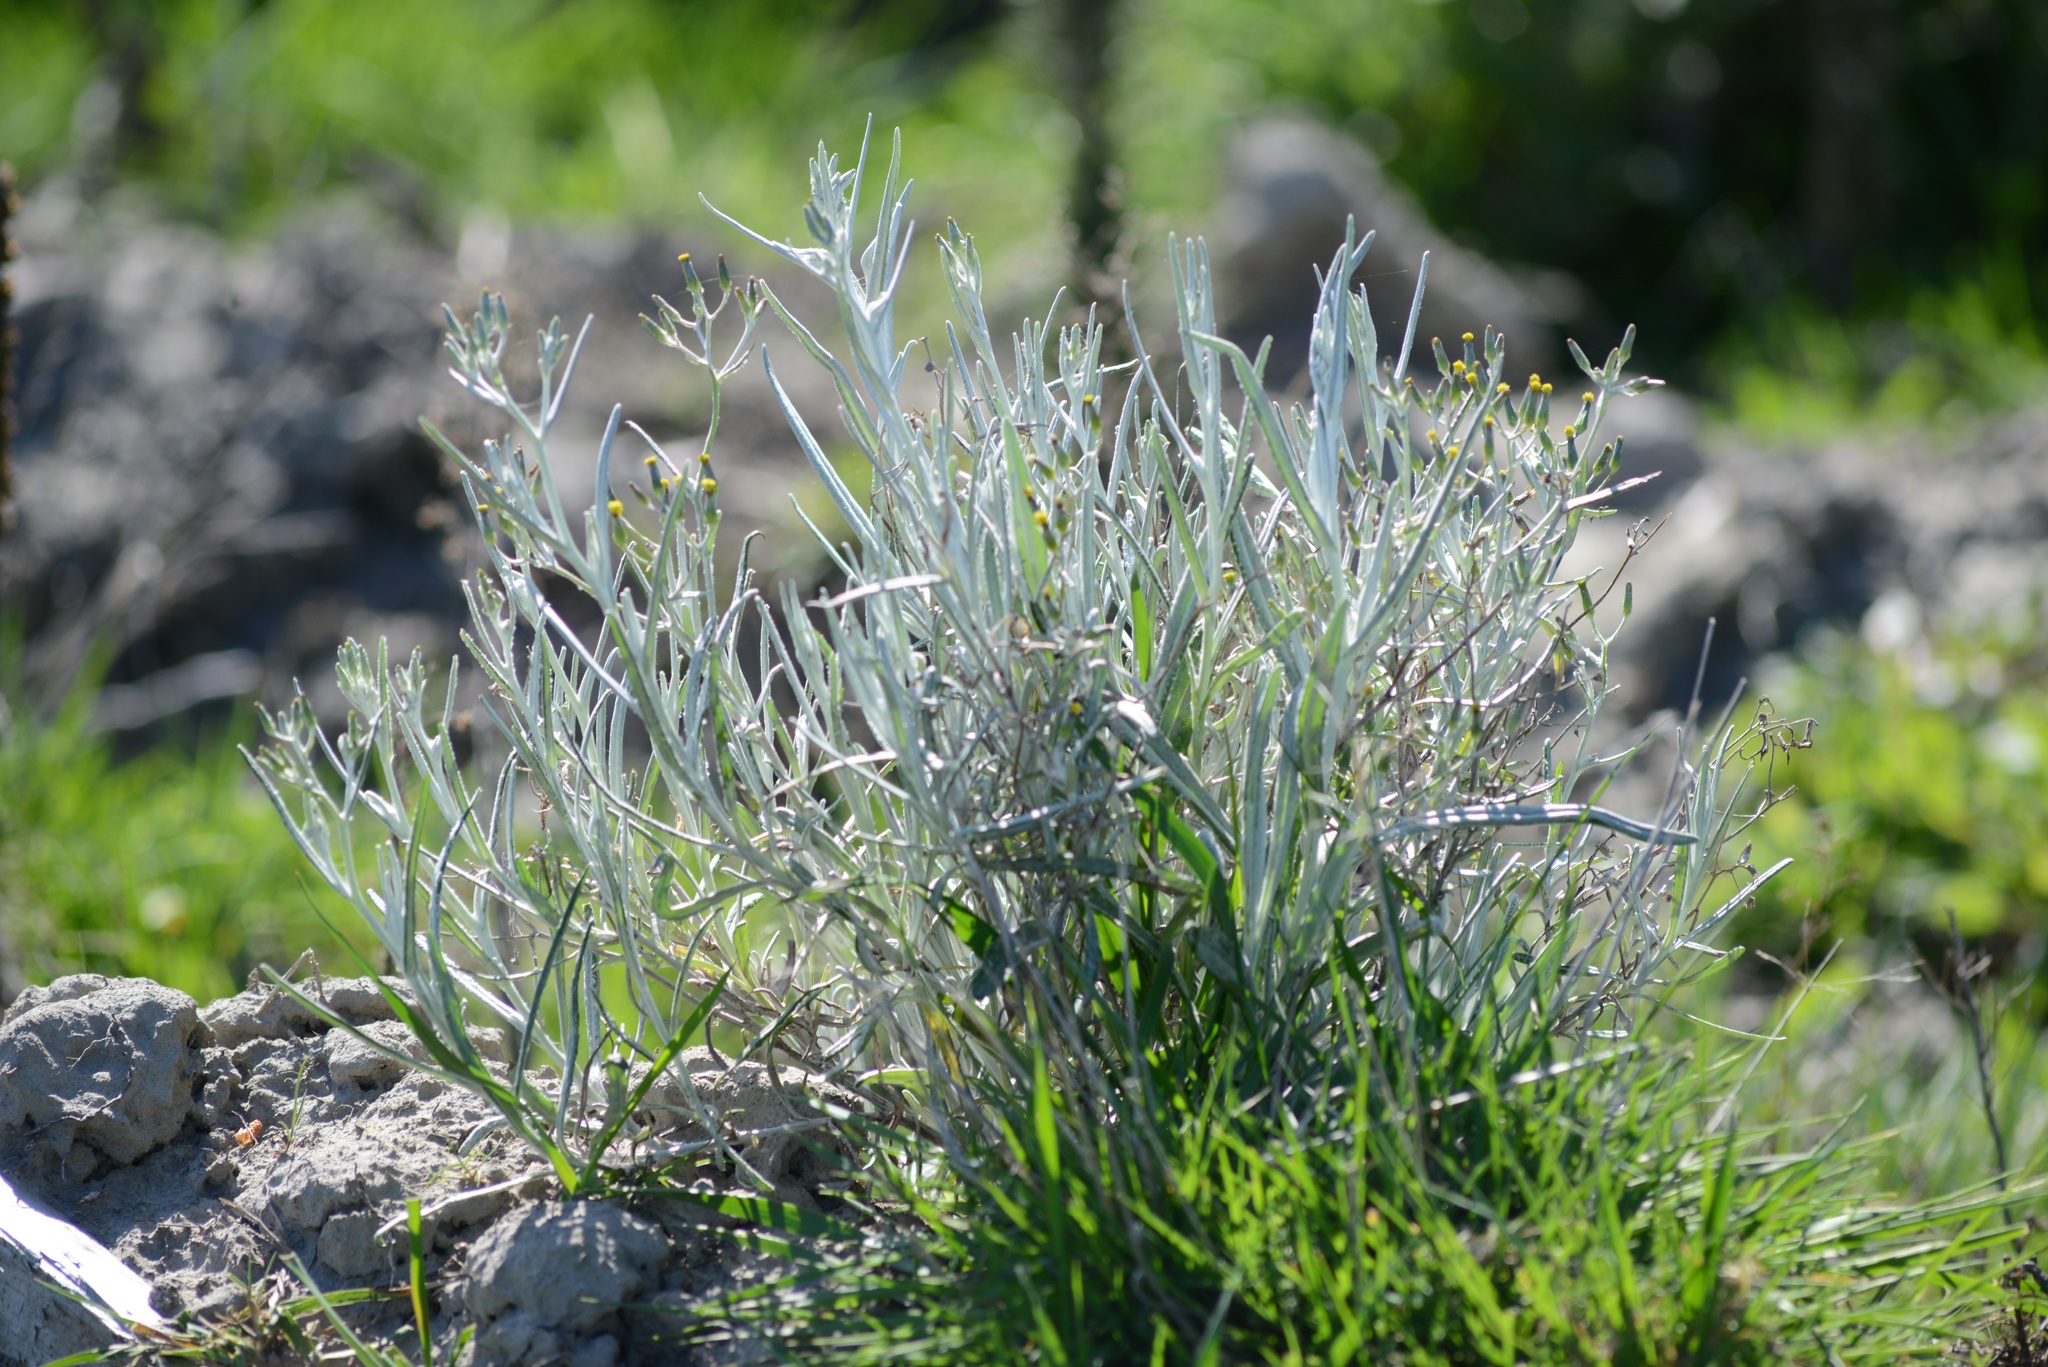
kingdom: Plantae
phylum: Tracheophyta
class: Magnoliopsida
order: Asterales
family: Asteraceae
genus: Senecio
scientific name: Senecio quadridentatus
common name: Cotton fireweed
